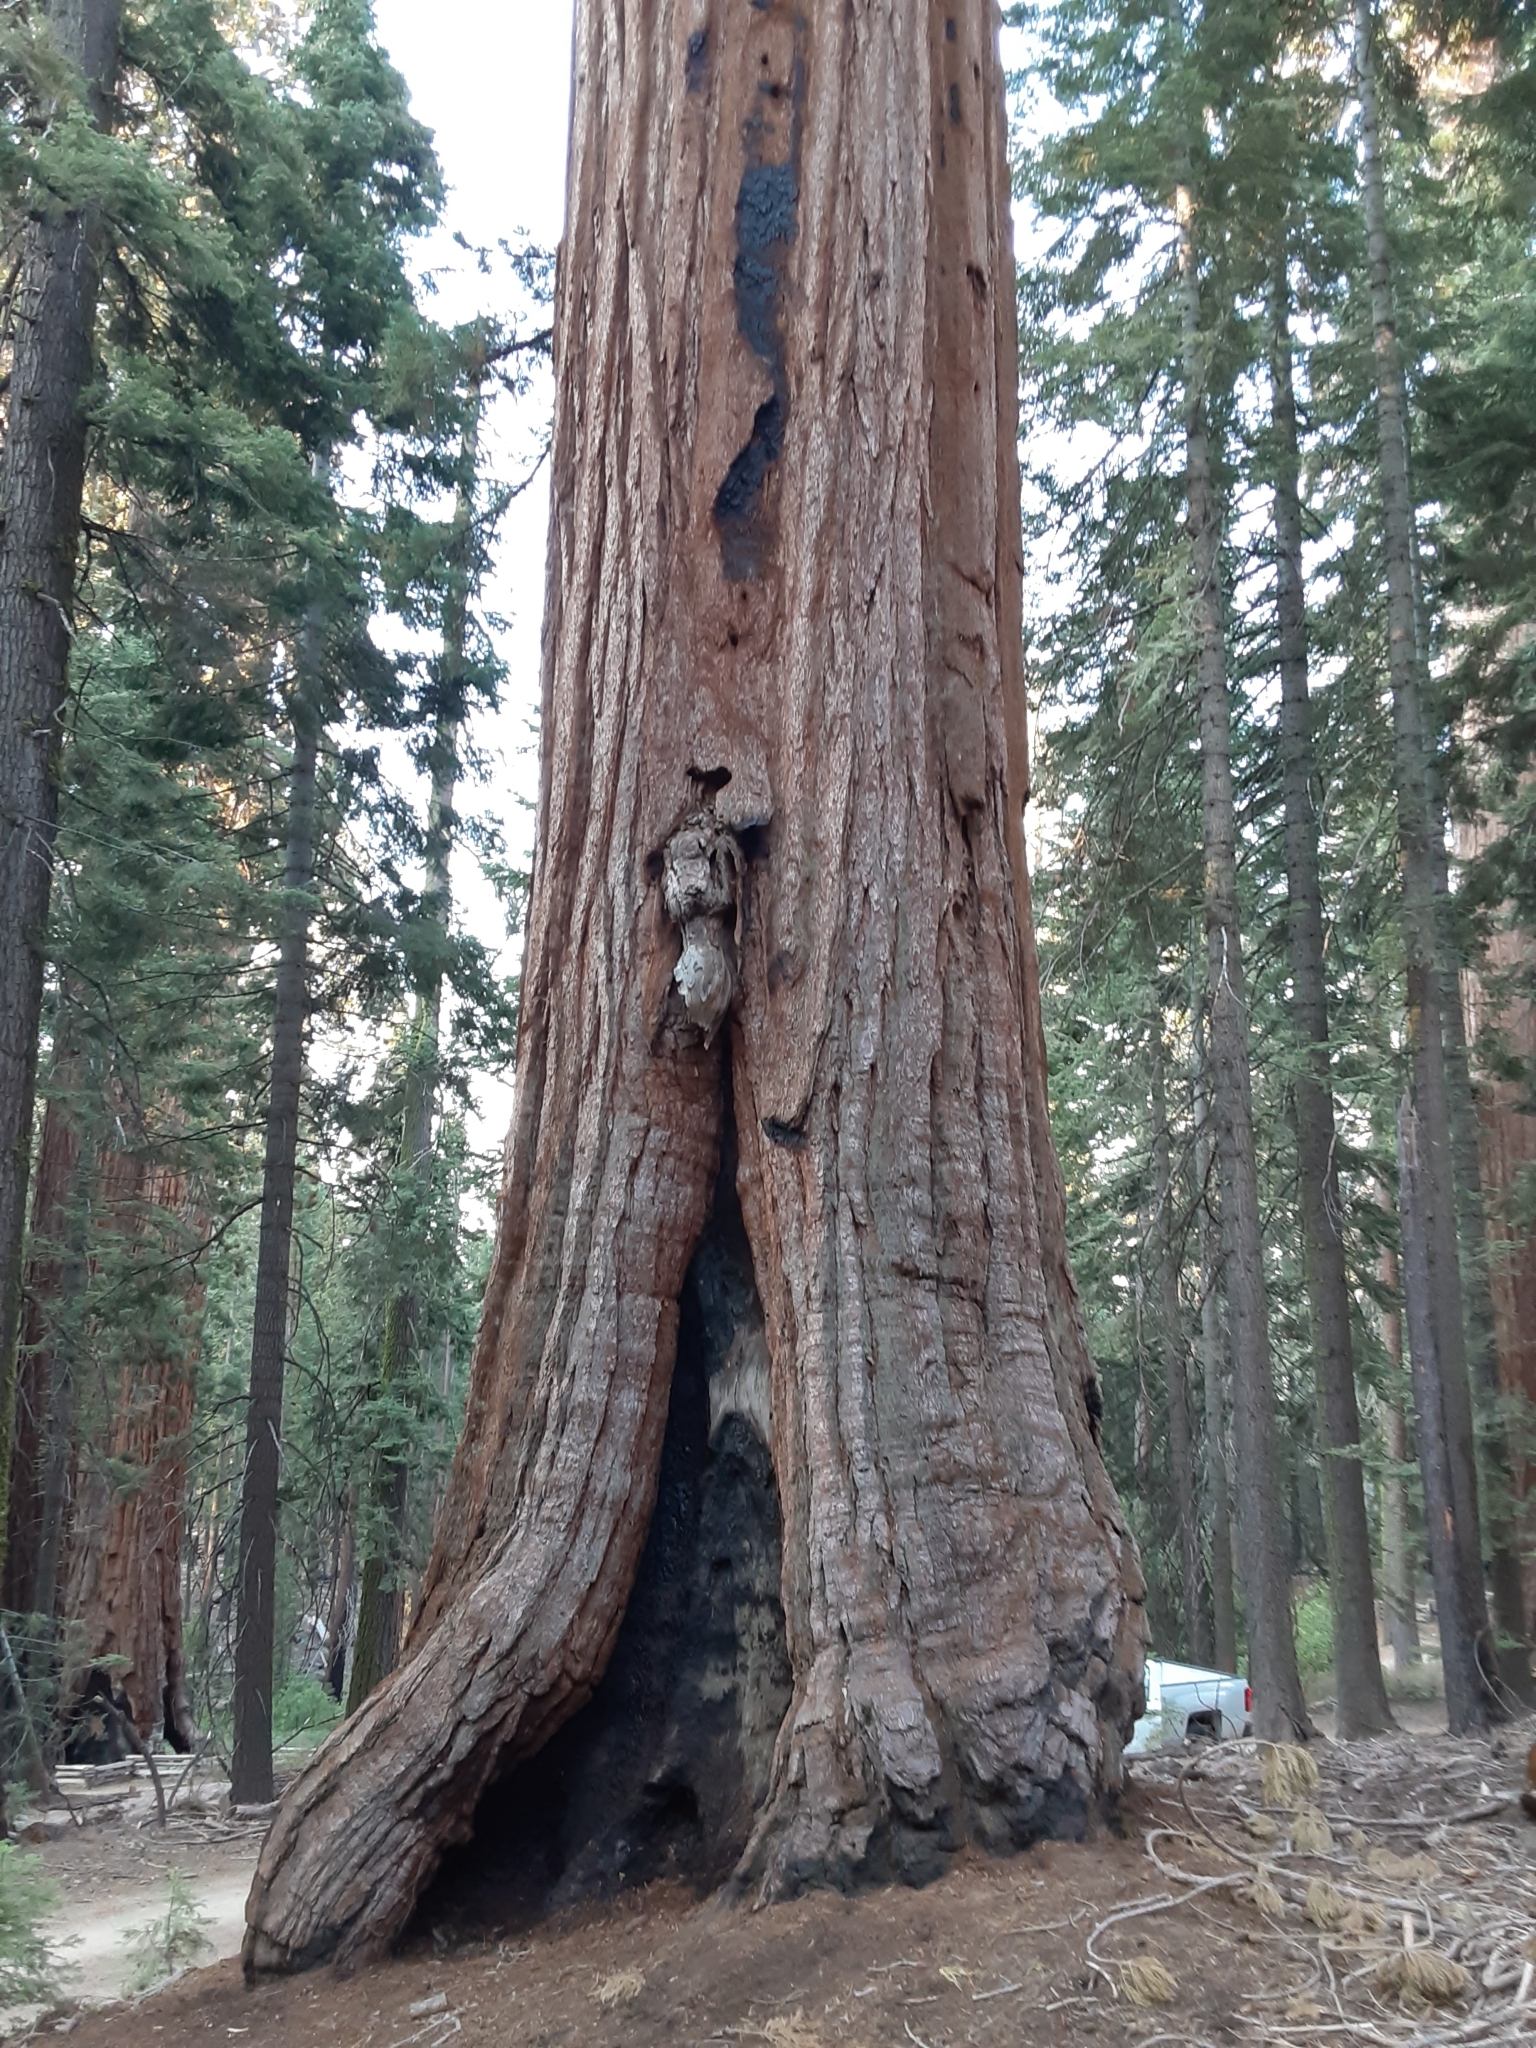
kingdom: Plantae
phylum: Tracheophyta
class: Pinopsida
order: Pinales
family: Cupressaceae
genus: Sequoiadendron
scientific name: Sequoiadendron giganteum
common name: Wellingtonia
